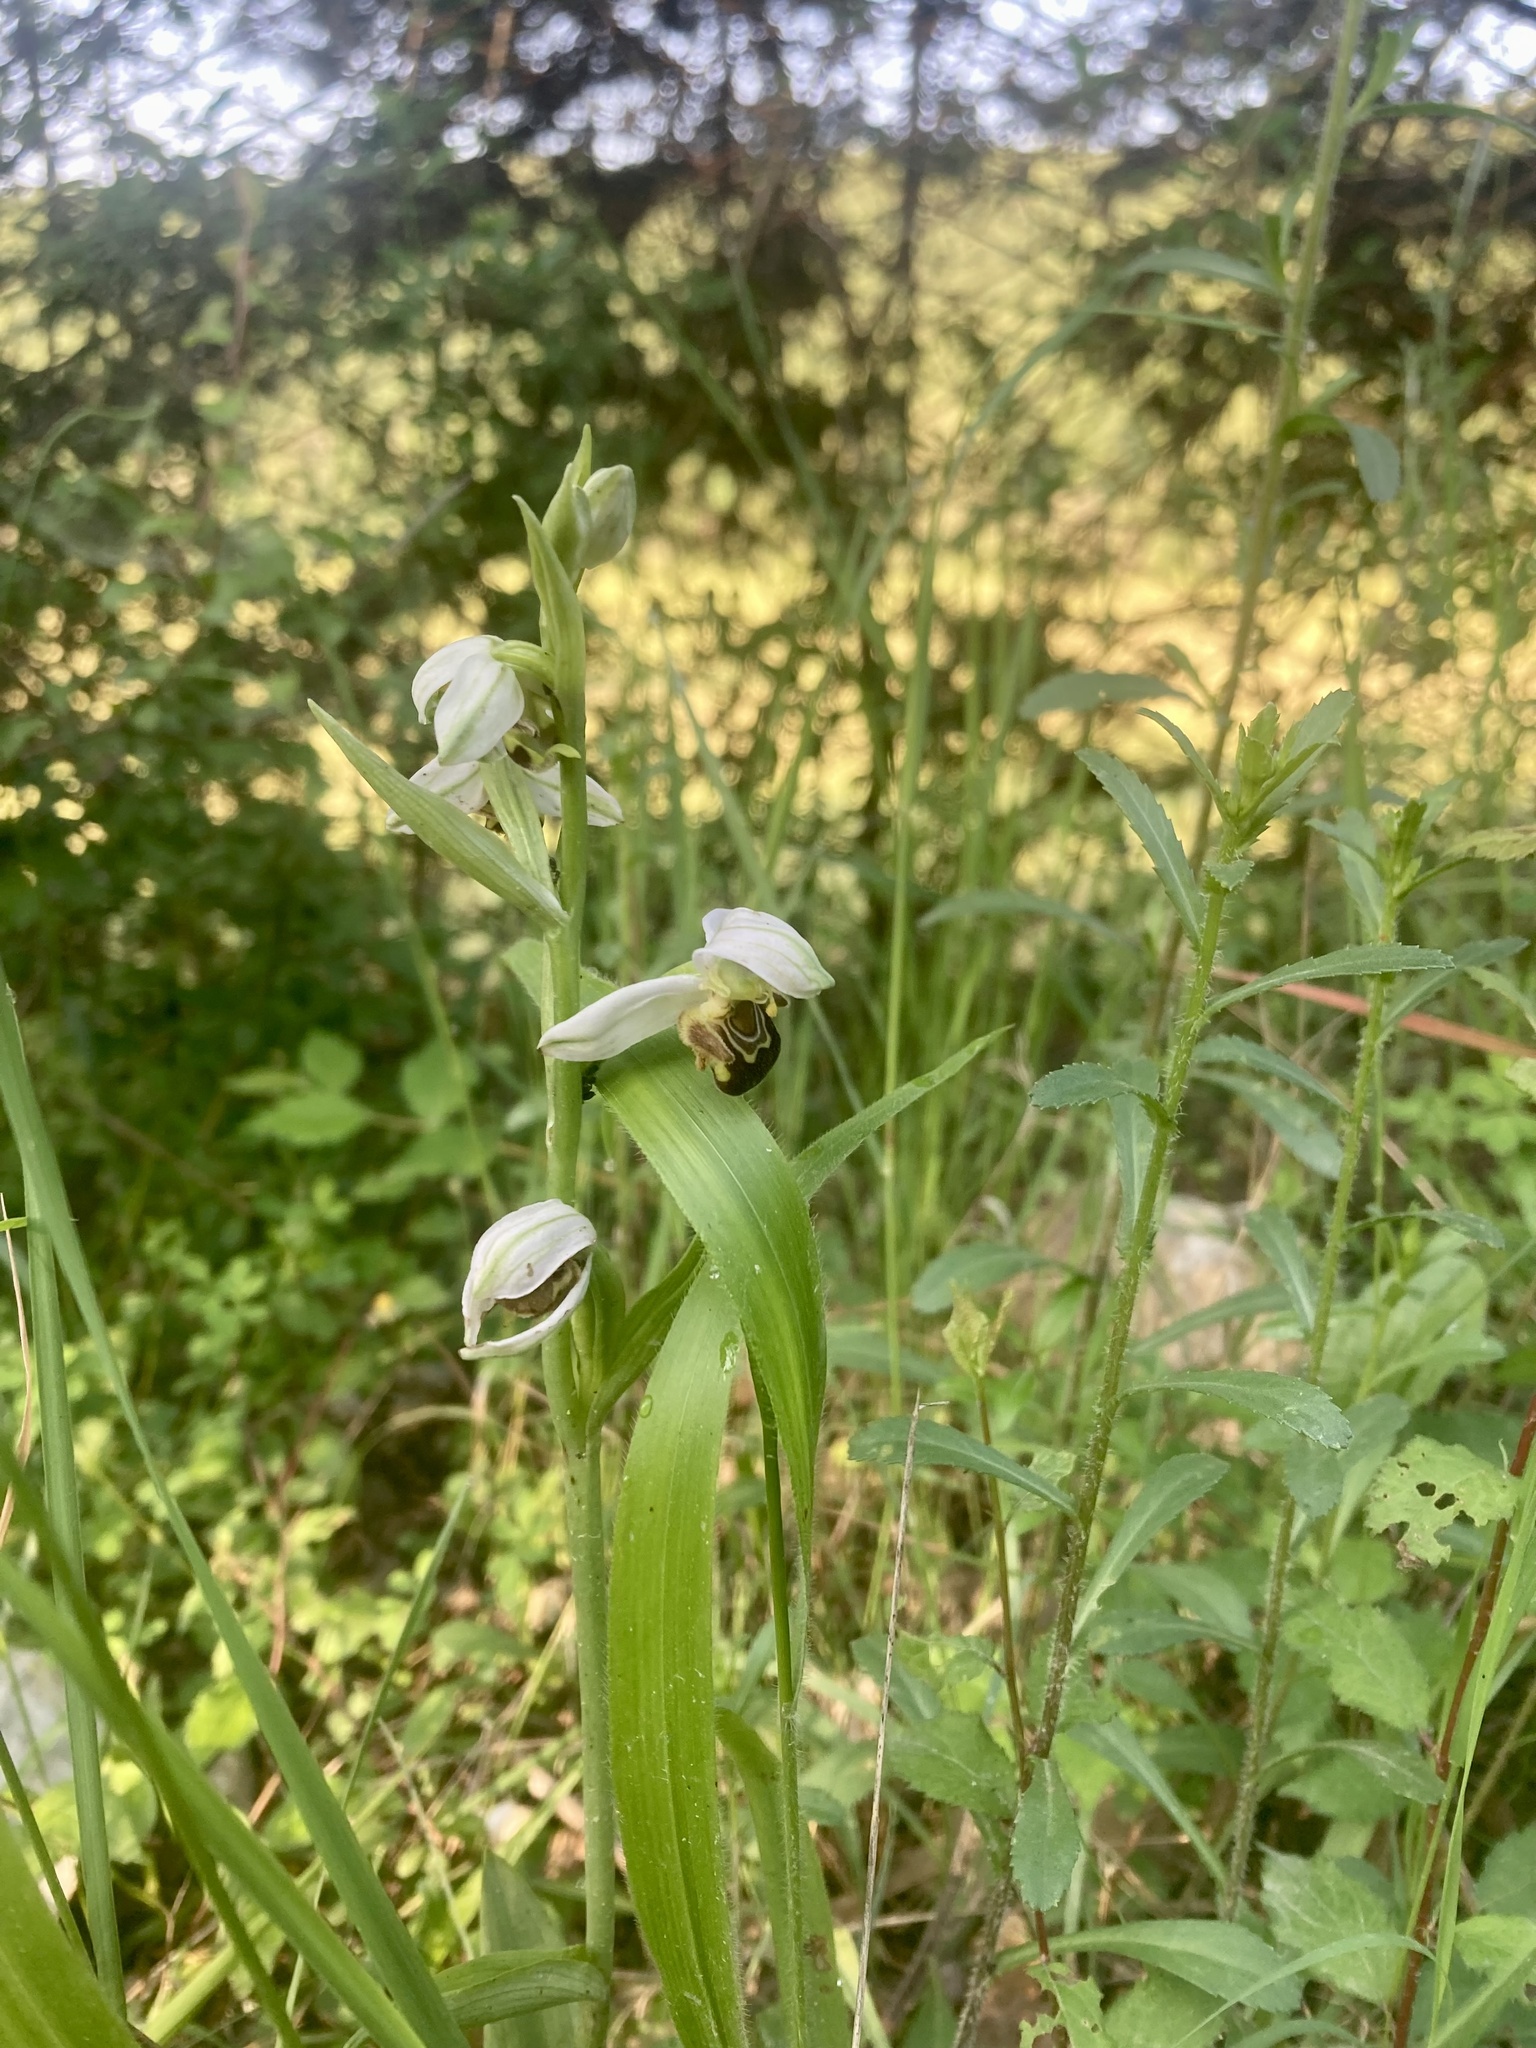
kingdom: Plantae
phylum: Tracheophyta
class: Liliopsida
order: Asparagales
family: Orchidaceae
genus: Ophrys
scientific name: Ophrys apifera
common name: Bee orchid
